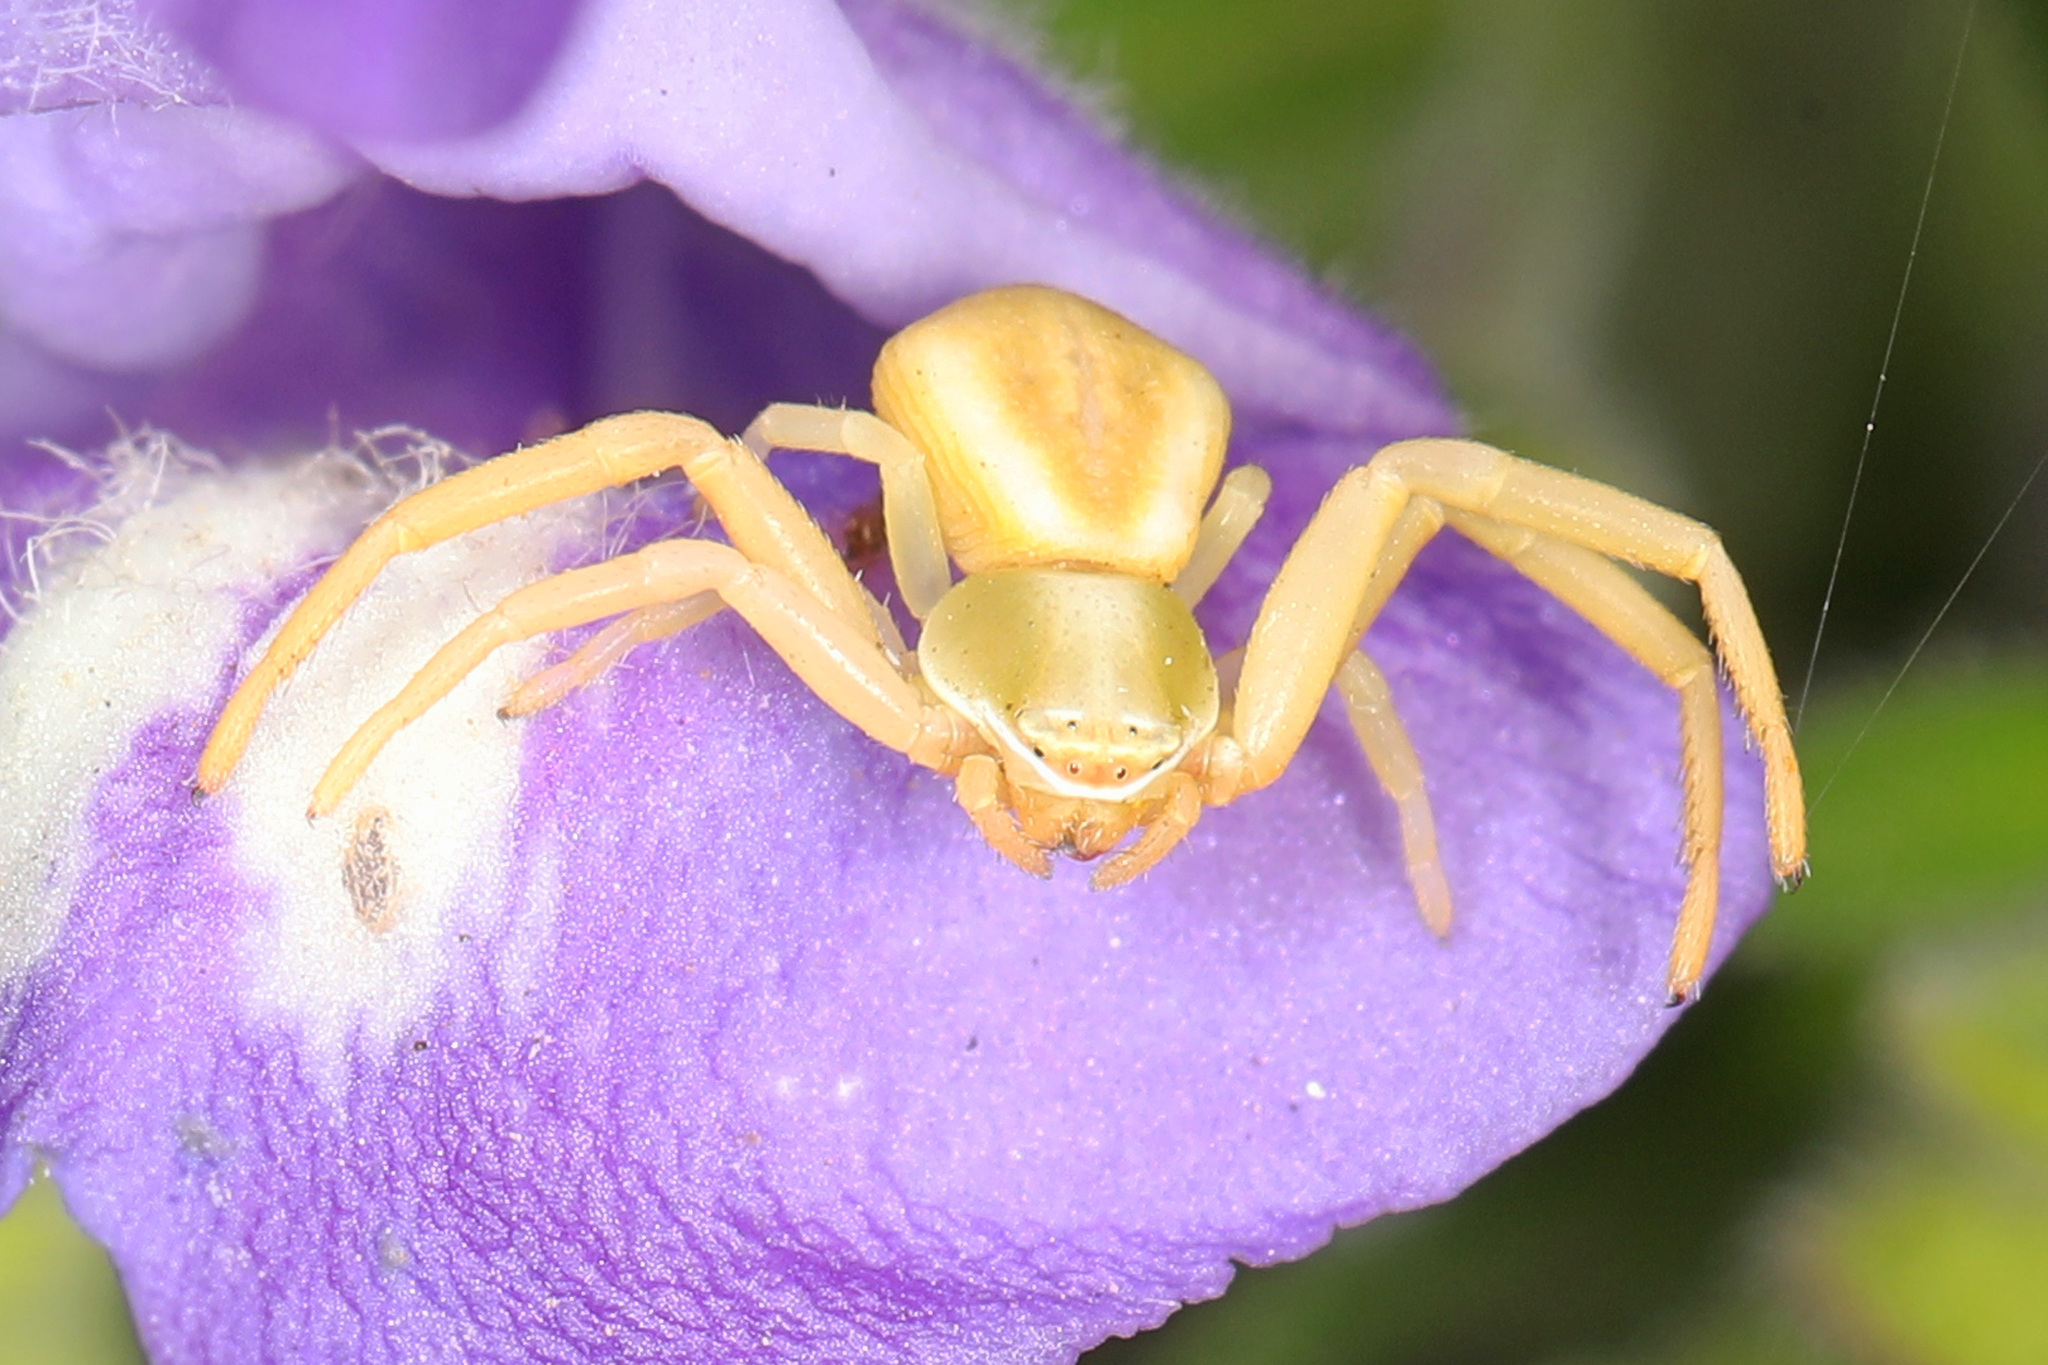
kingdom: Animalia
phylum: Arthropoda
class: Arachnida
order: Araneae
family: Thomisidae
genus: Misumenoides
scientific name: Misumenoides formosipes
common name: White-banded crab spider
